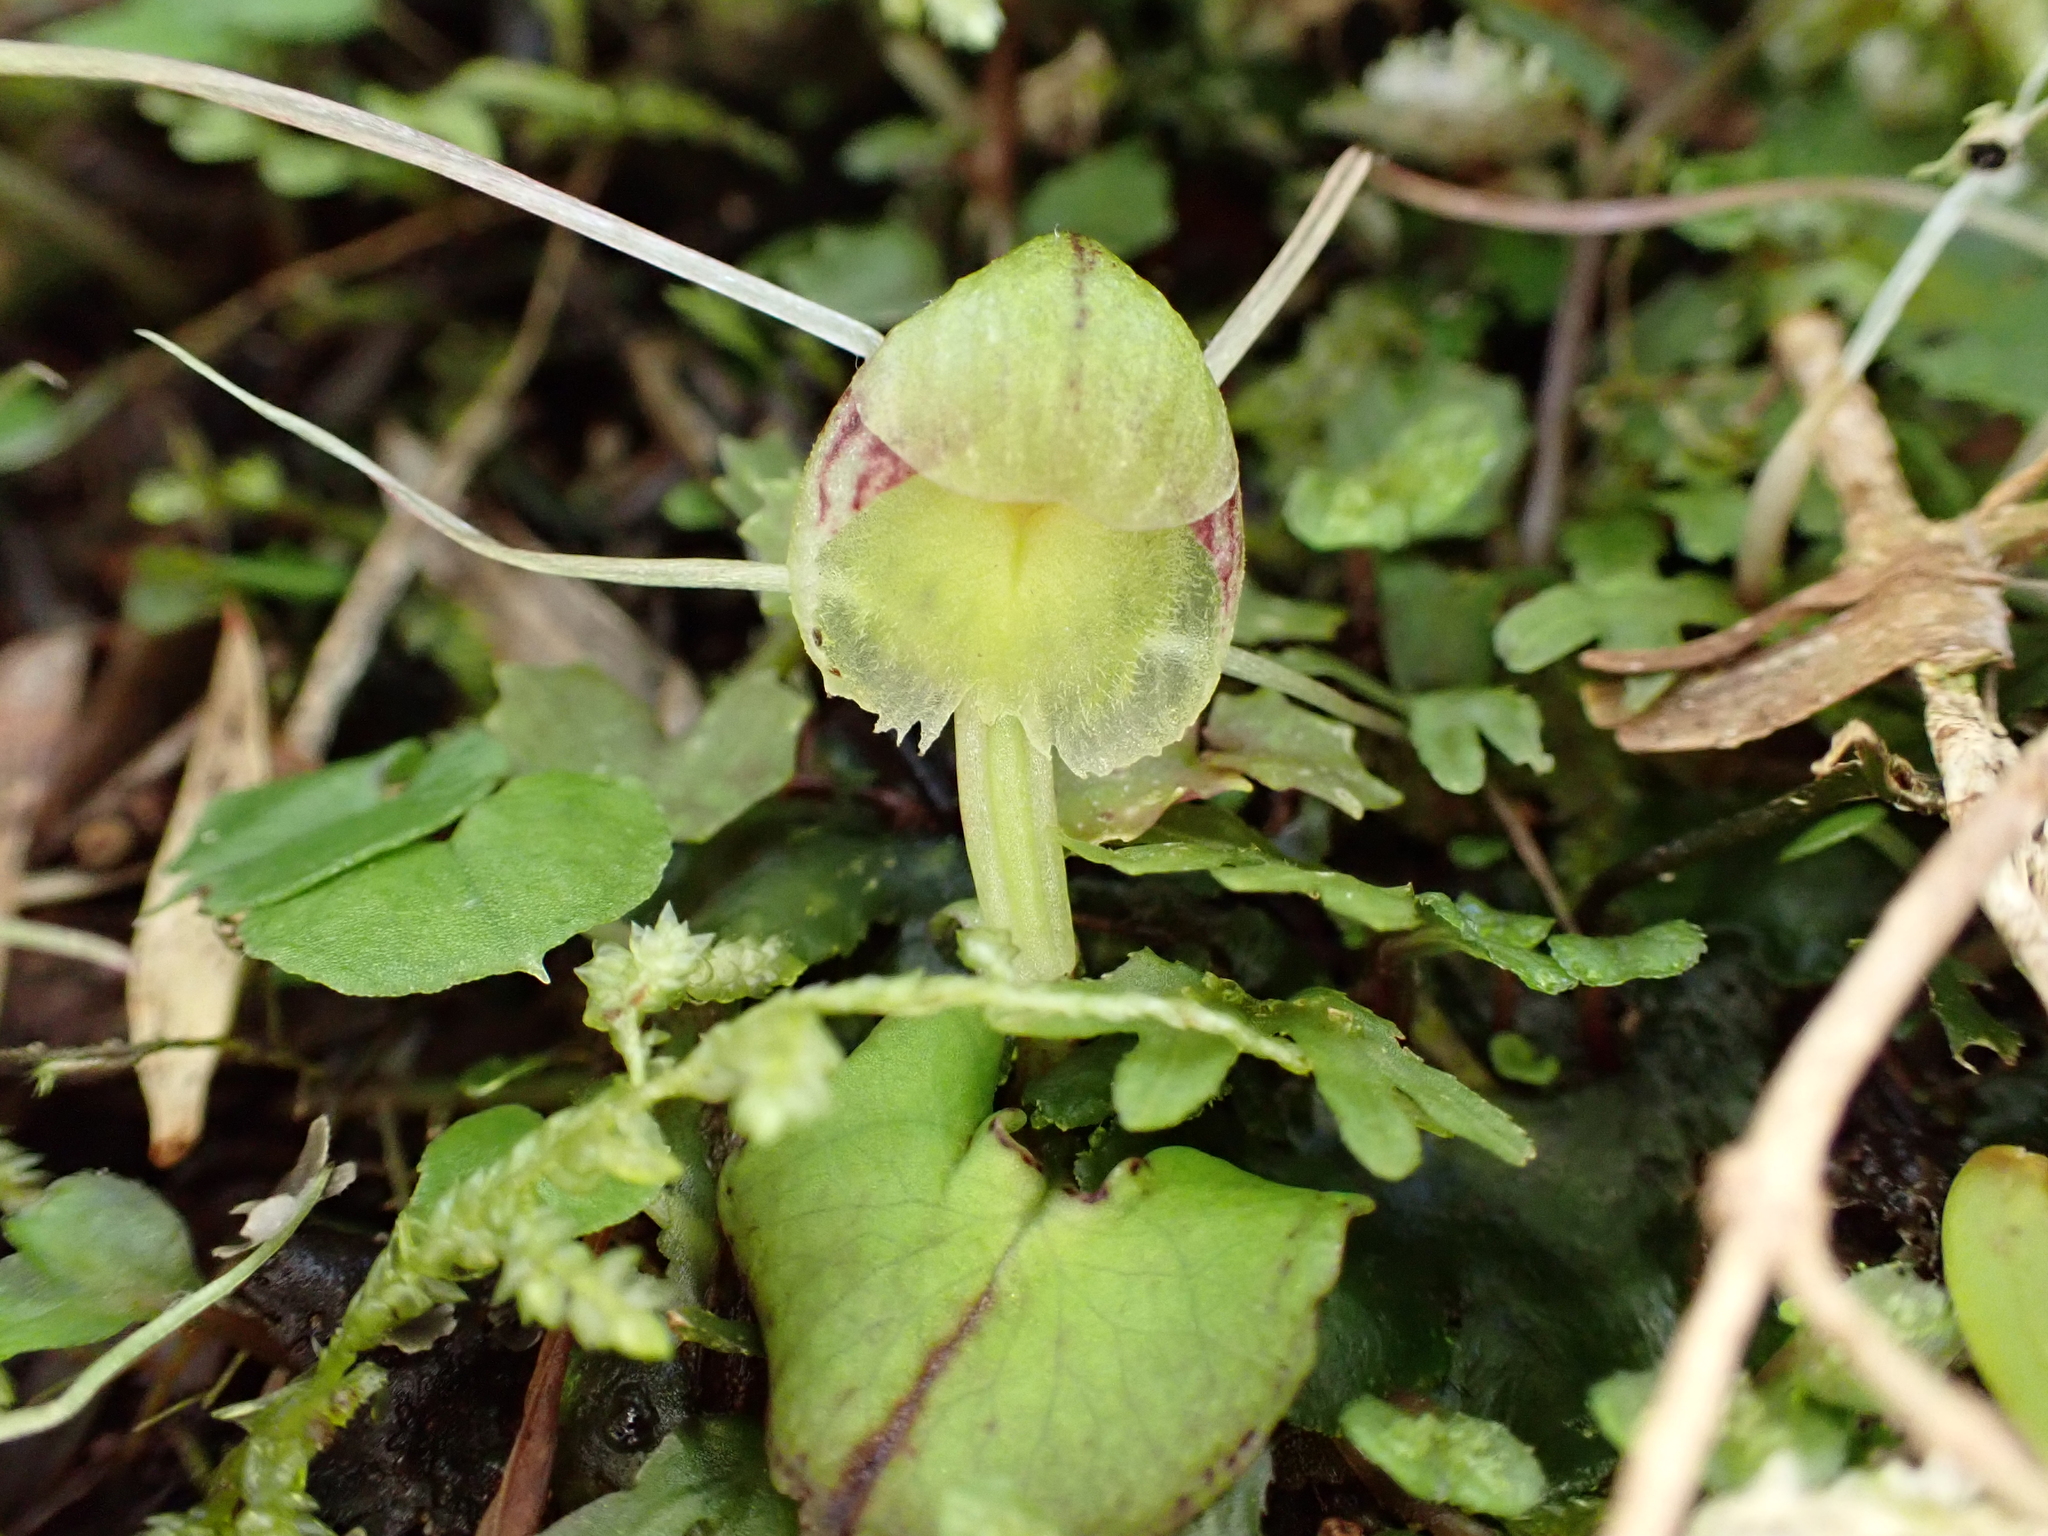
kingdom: Plantae
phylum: Tracheophyta
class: Liliopsida
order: Asparagales
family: Orchidaceae
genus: Corybas
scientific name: Corybas walliae
